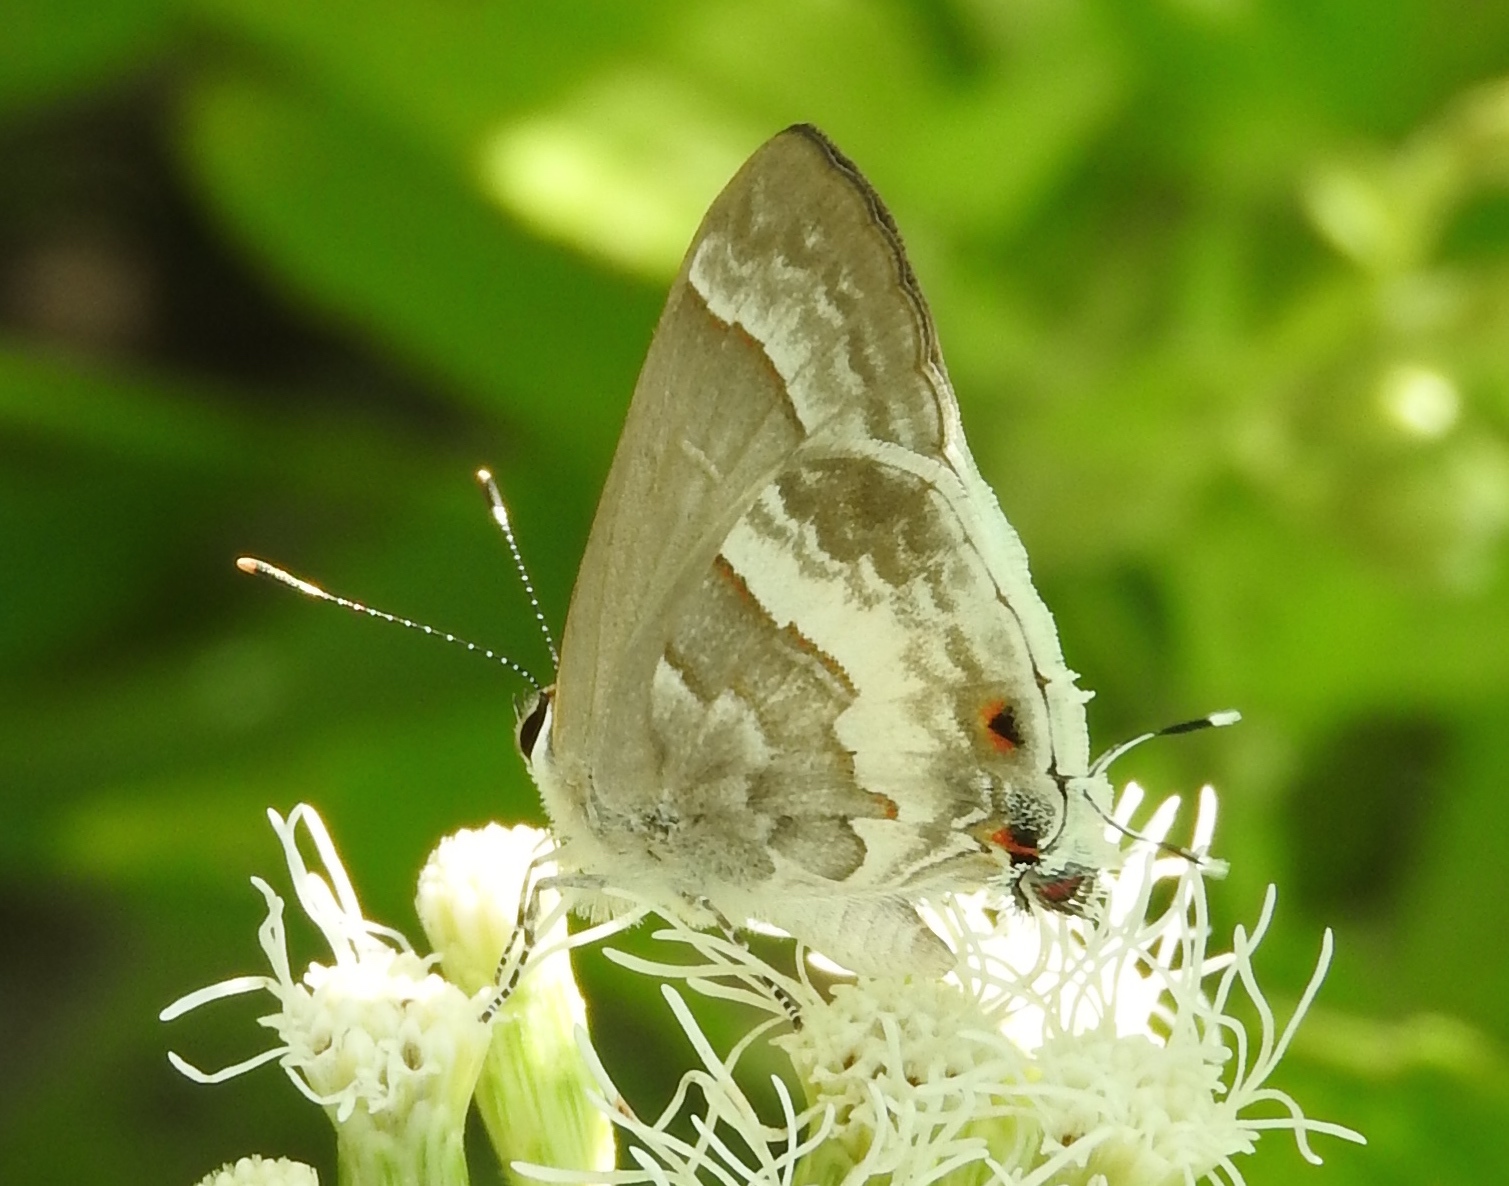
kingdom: Animalia
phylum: Arthropoda
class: Insecta
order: Lepidoptera
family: Lycaenidae
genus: Strymon
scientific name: Strymon albata
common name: White scrub-hairstreak
